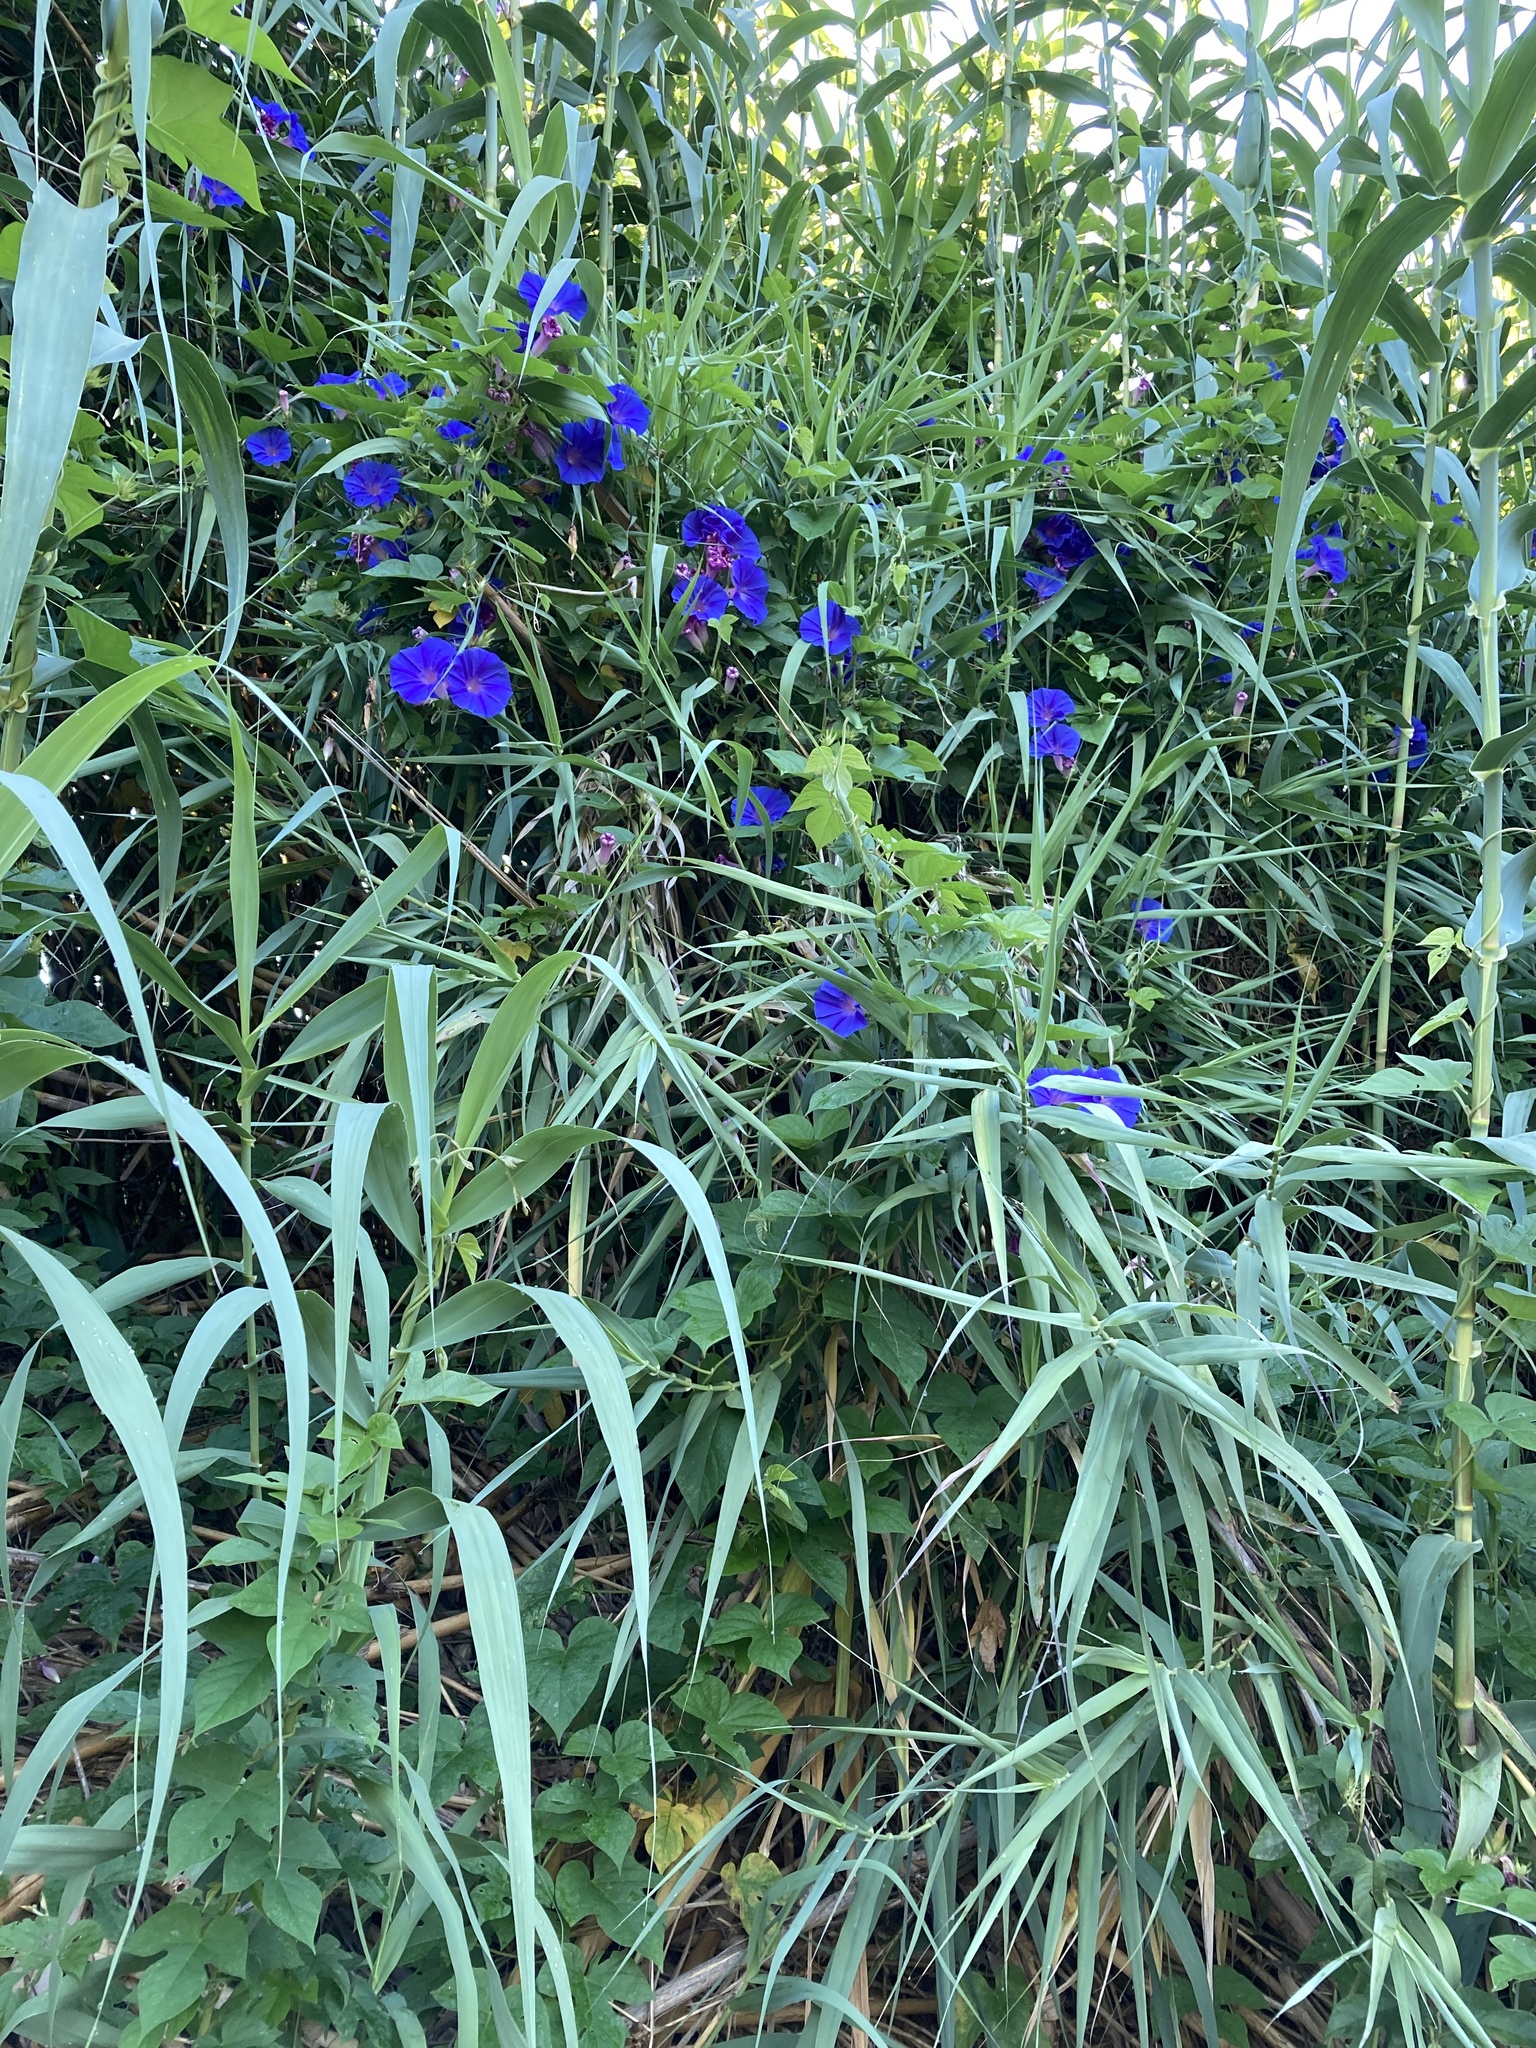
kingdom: Plantae
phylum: Tracheophyta
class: Magnoliopsida
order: Solanales
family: Convolvulaceae
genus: Ipomoea
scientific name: Ipomoea indica
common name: Blue dawnflower
